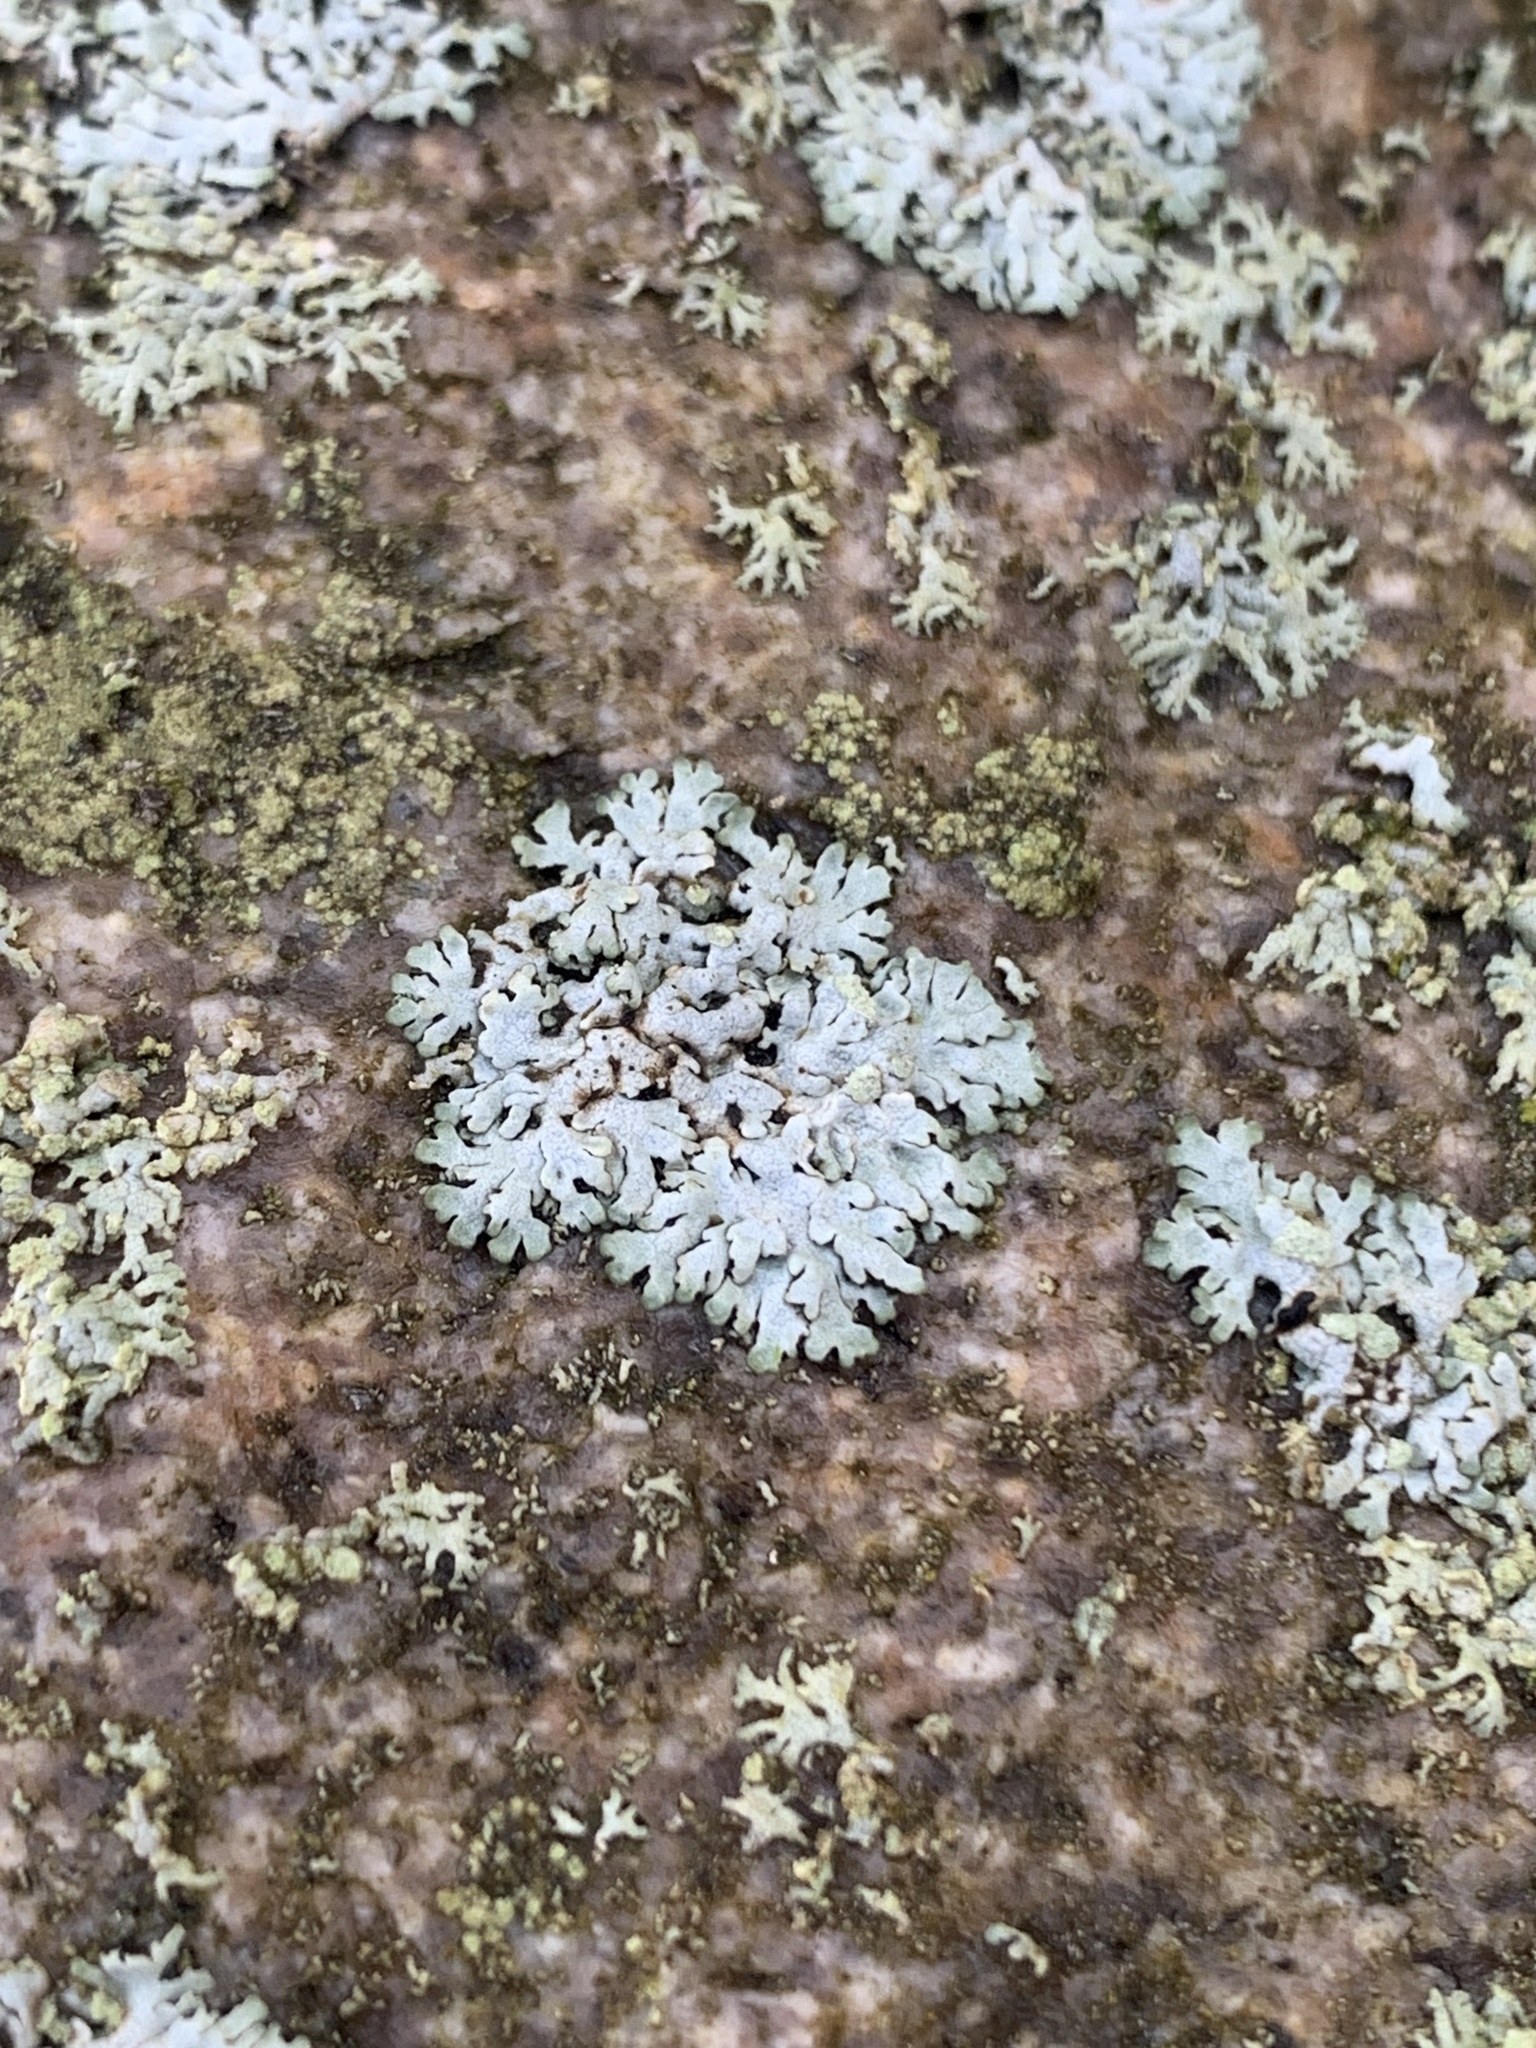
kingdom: Fungi
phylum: Ascomycota
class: Lecanoromycetes
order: Caliciales
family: Physciaceae
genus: Physcia
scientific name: Physcia caesia
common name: Blue-gray rosette lichen
